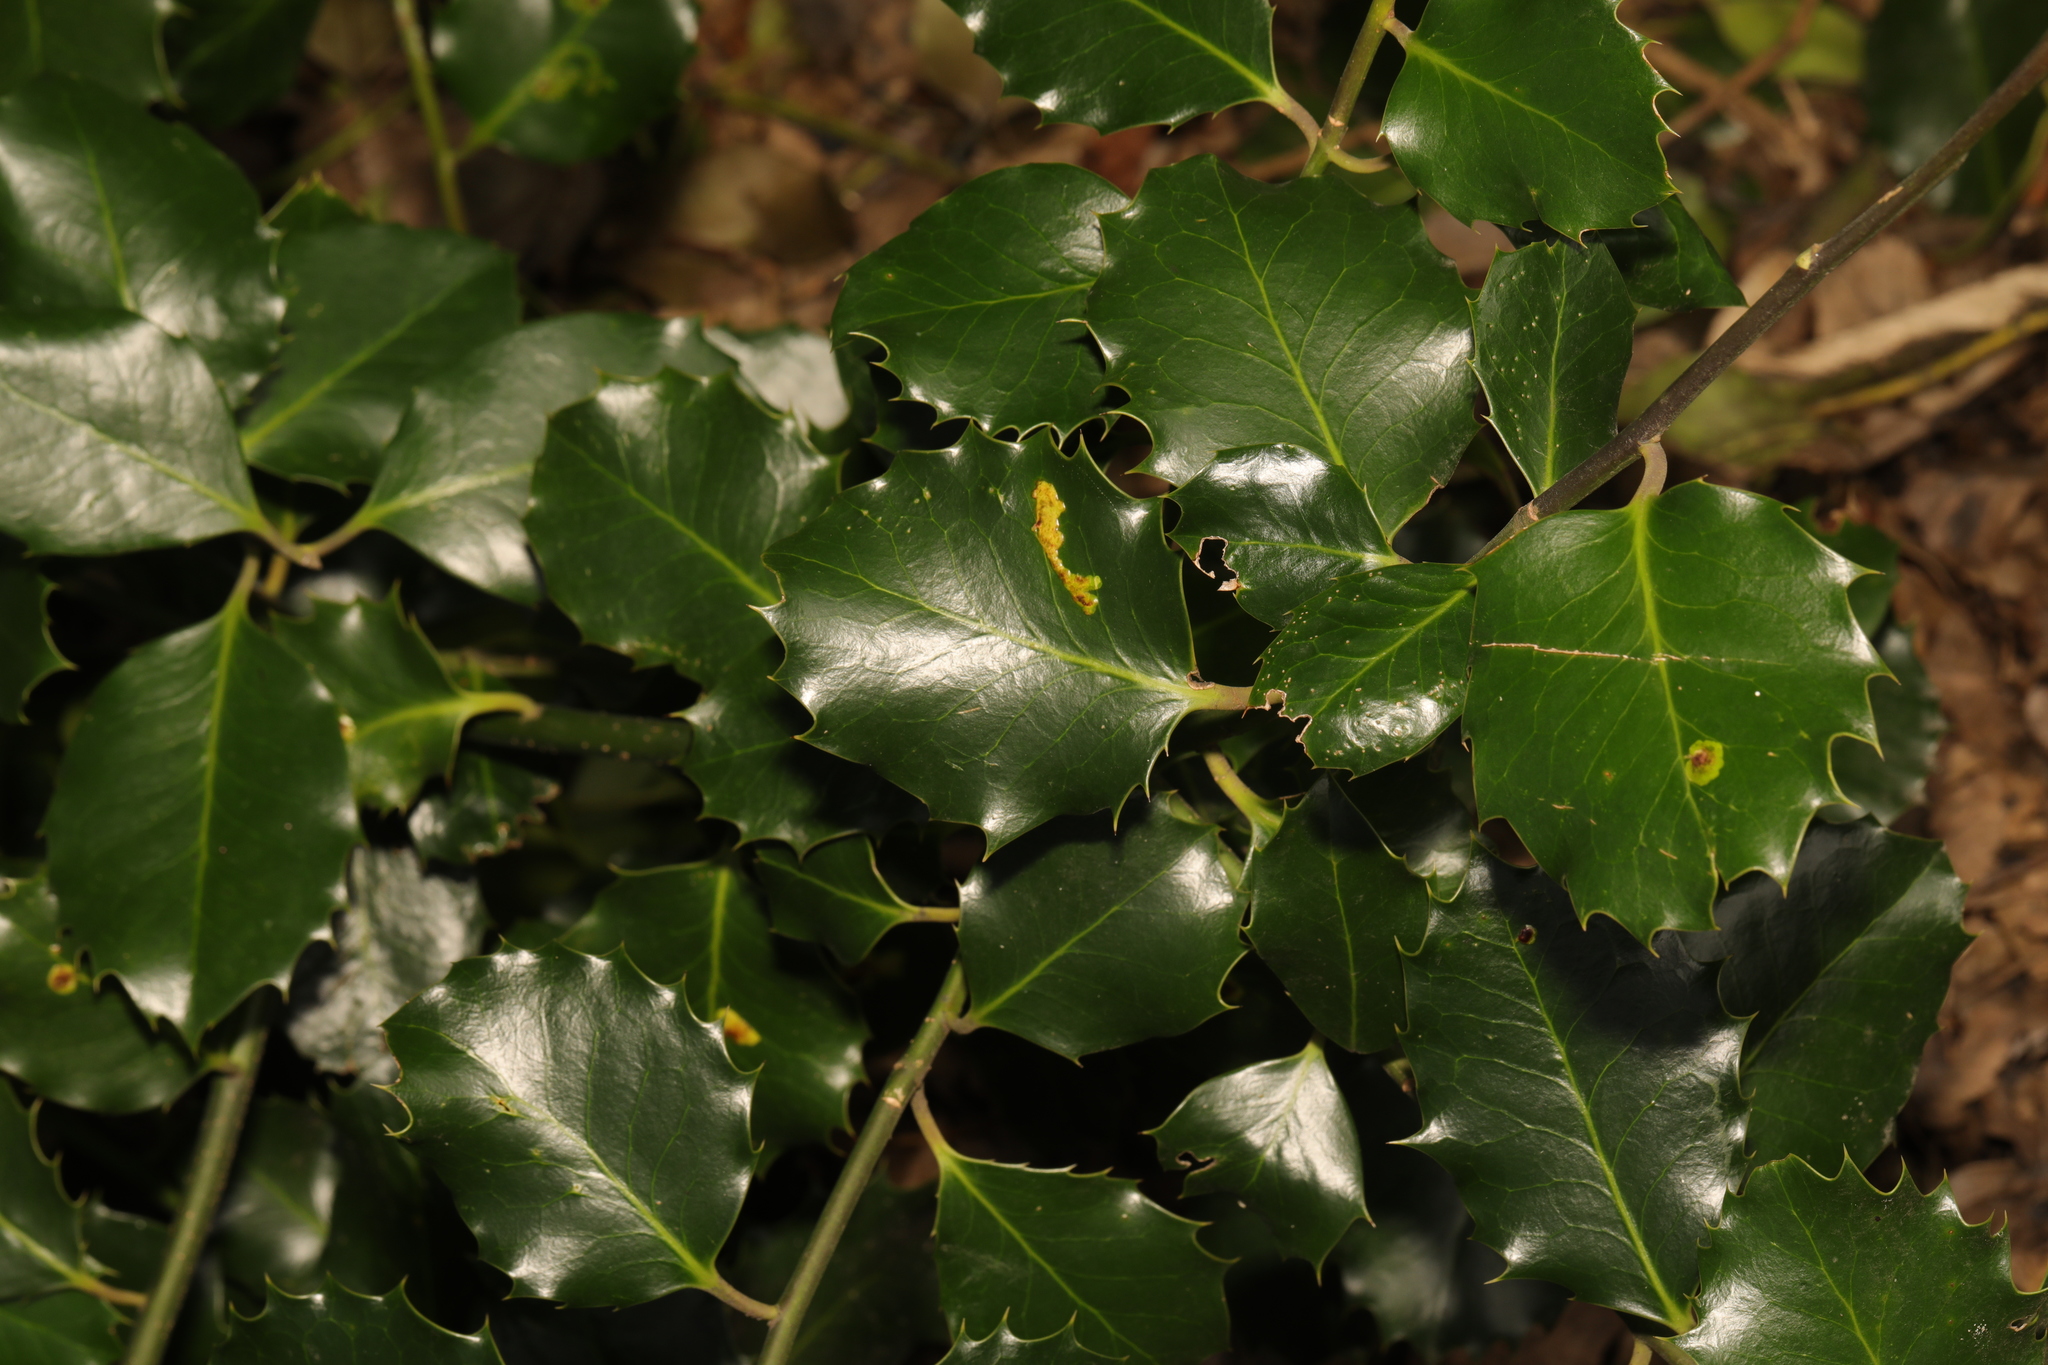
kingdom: Plantae
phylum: Tracheophyta
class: Magnoliopsida
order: Aquifoliales
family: Aquifoliaceae
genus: Ilex
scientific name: Ilex aquifolium
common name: English holly
